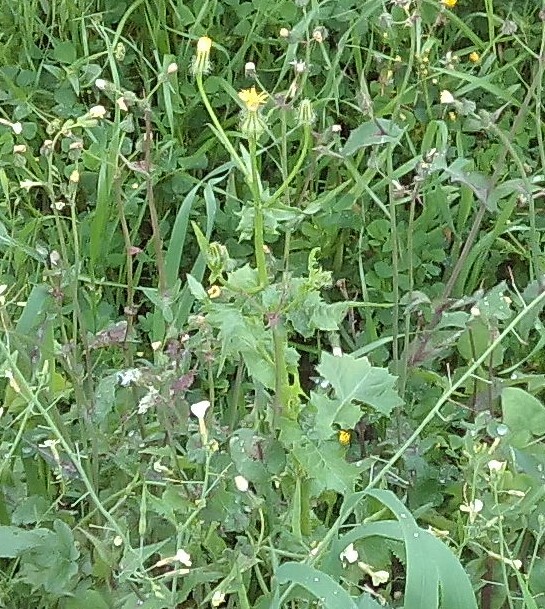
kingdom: Plantae
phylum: Tracheophyta
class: Magnoliopsida
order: Asterales
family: Asteraceae
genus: Urospermum
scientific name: Urospermum picroides
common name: False hawkbit
